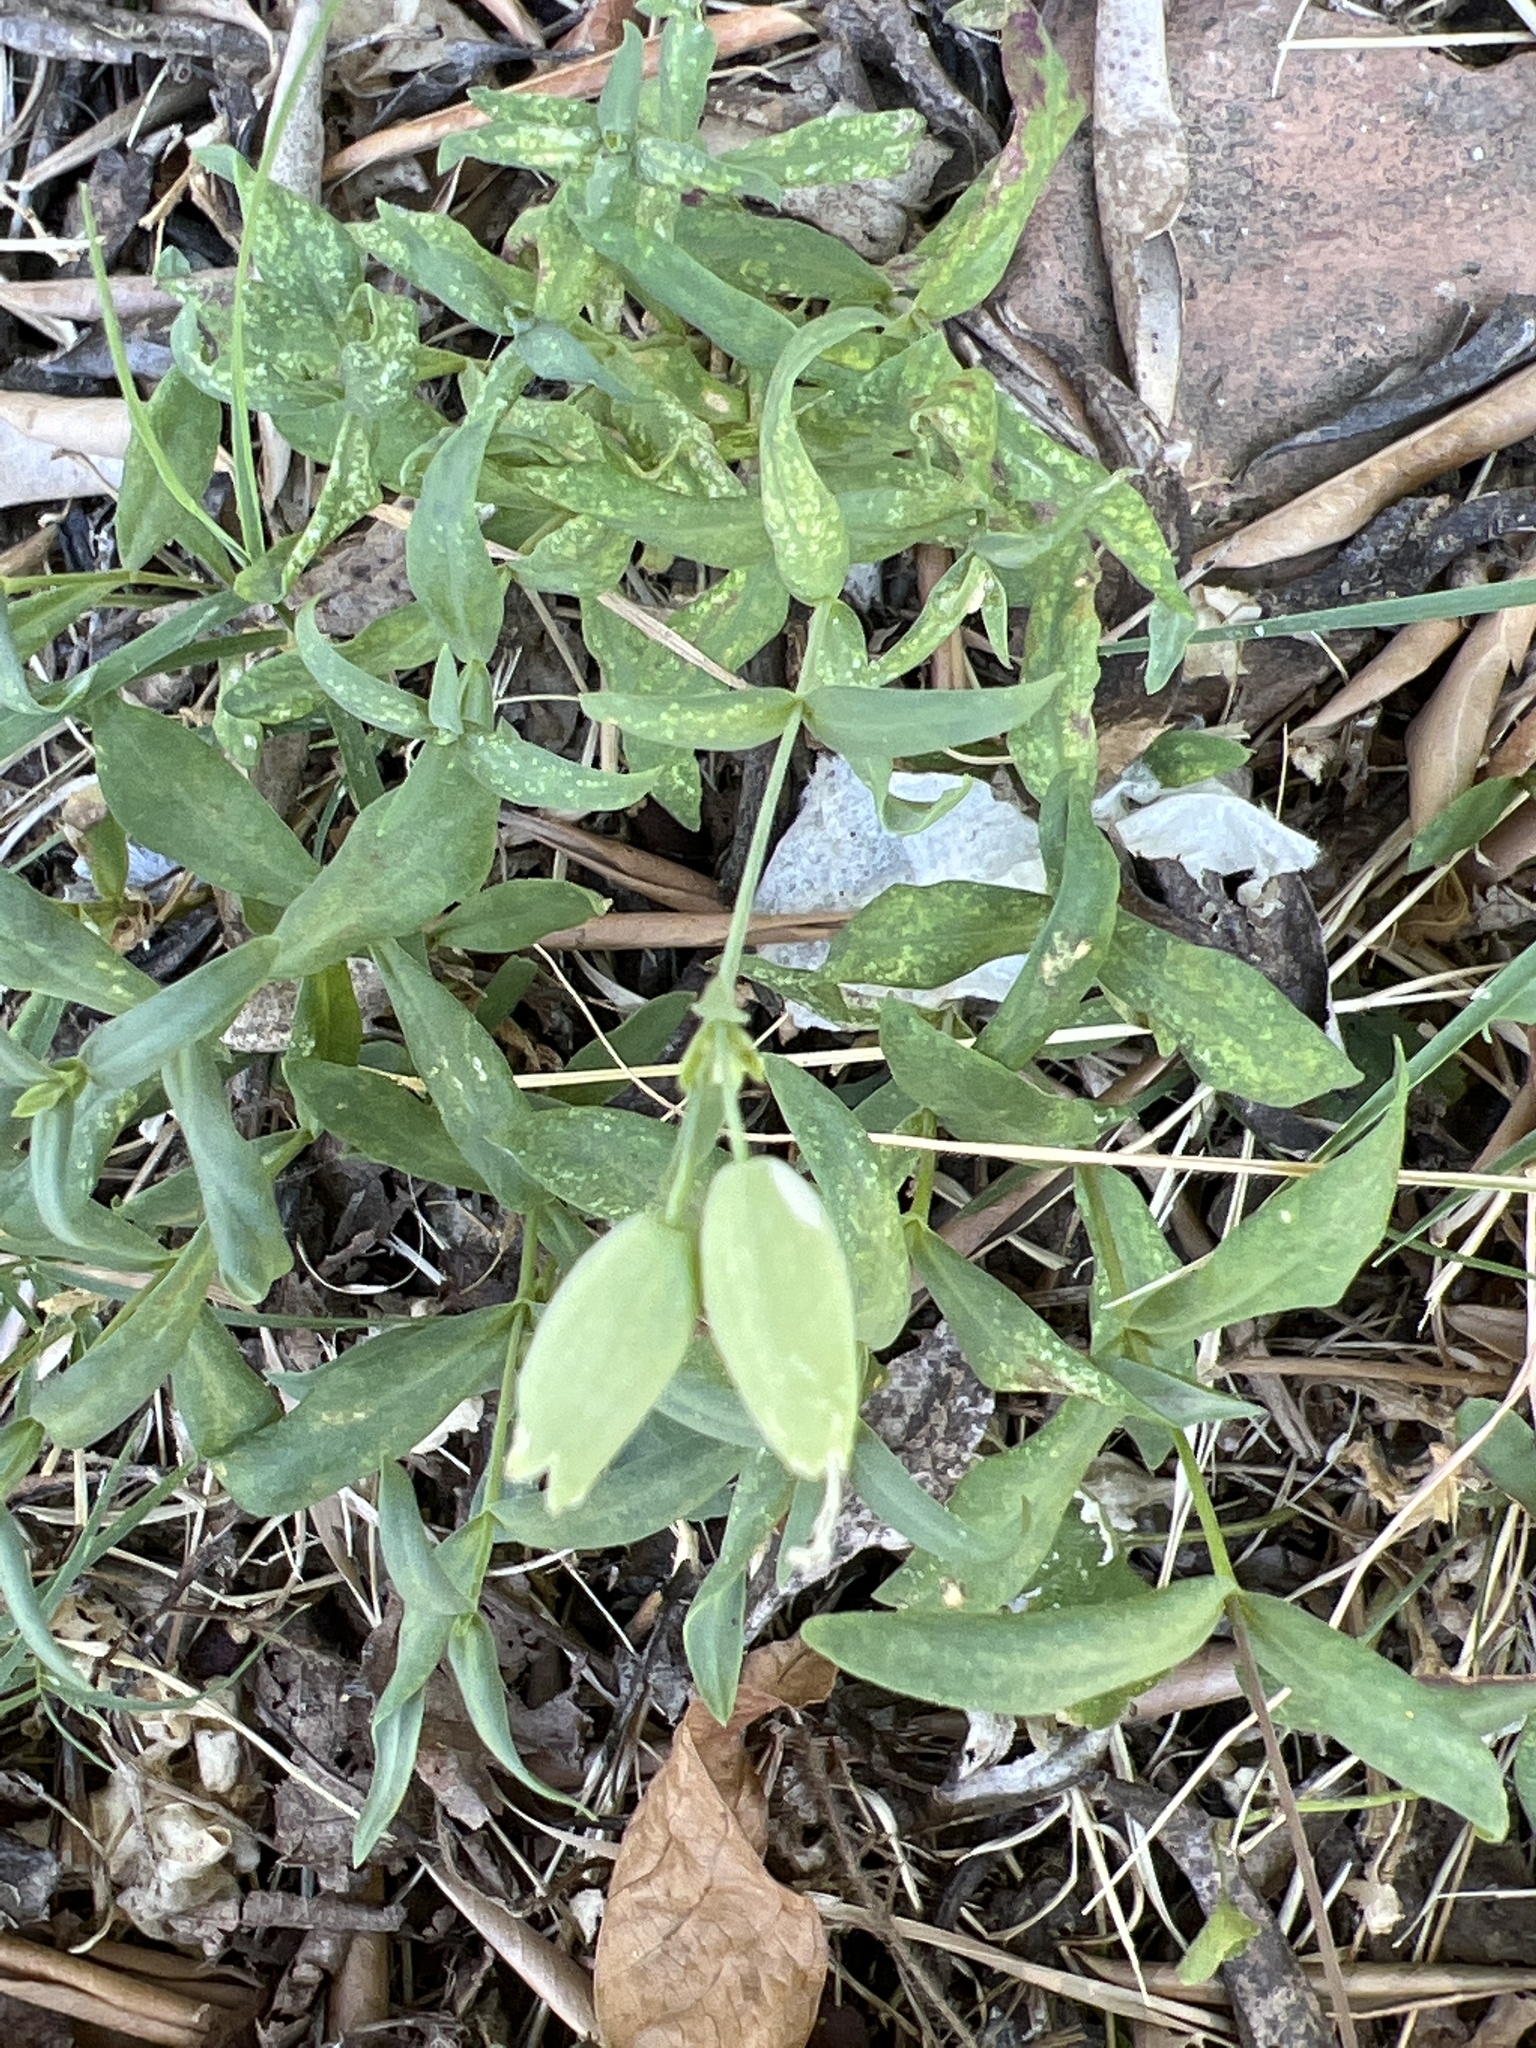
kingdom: Plantae
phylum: Tracheophyta
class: Magnoliopsida
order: Caryophyllales
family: Caryophyllaceae
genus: Silene
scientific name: Silene vulgaris
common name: Bladder campion
